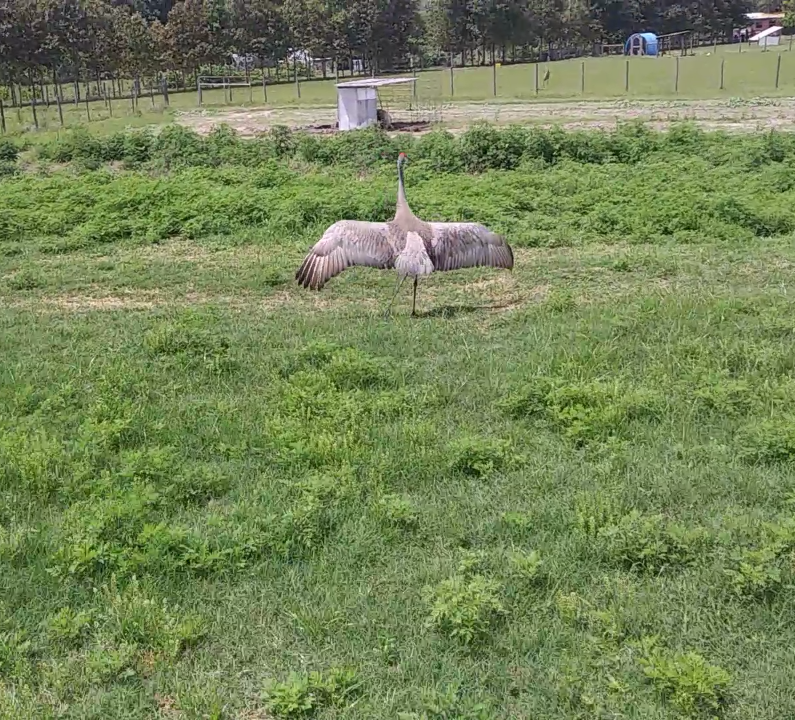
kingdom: Animalia
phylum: Chordata
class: Aves
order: Gruiformes
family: Gruidae
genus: Grus
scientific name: Grus canadensis
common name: Sandhill crane
